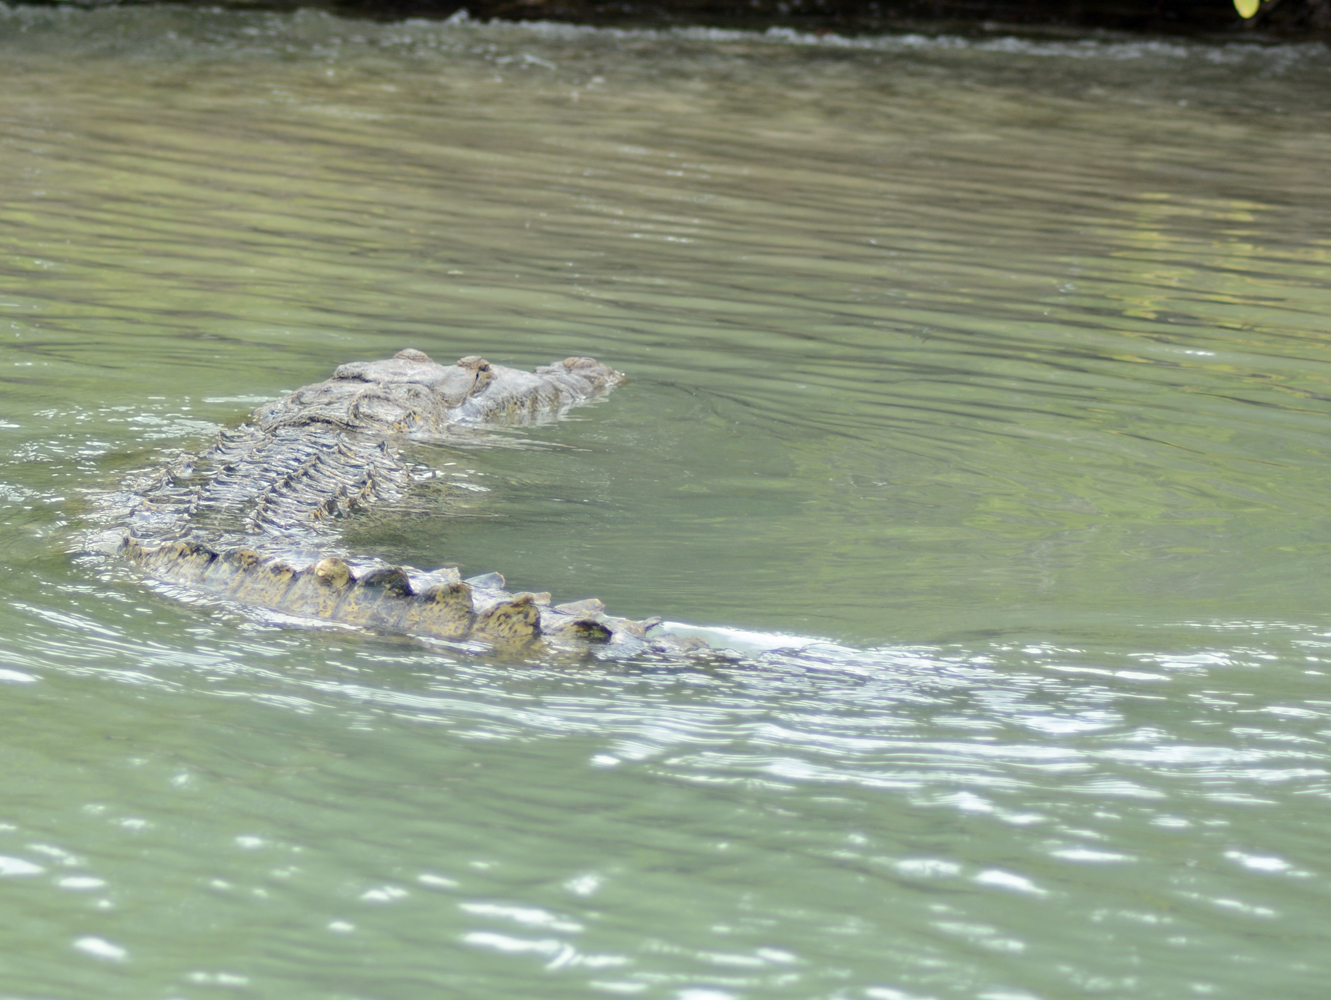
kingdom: Animalia
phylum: Chordata
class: Crocodylia
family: Crocodylidae
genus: Crocodylus
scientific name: Crocodylus moreletii
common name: Morelet's crocodile
